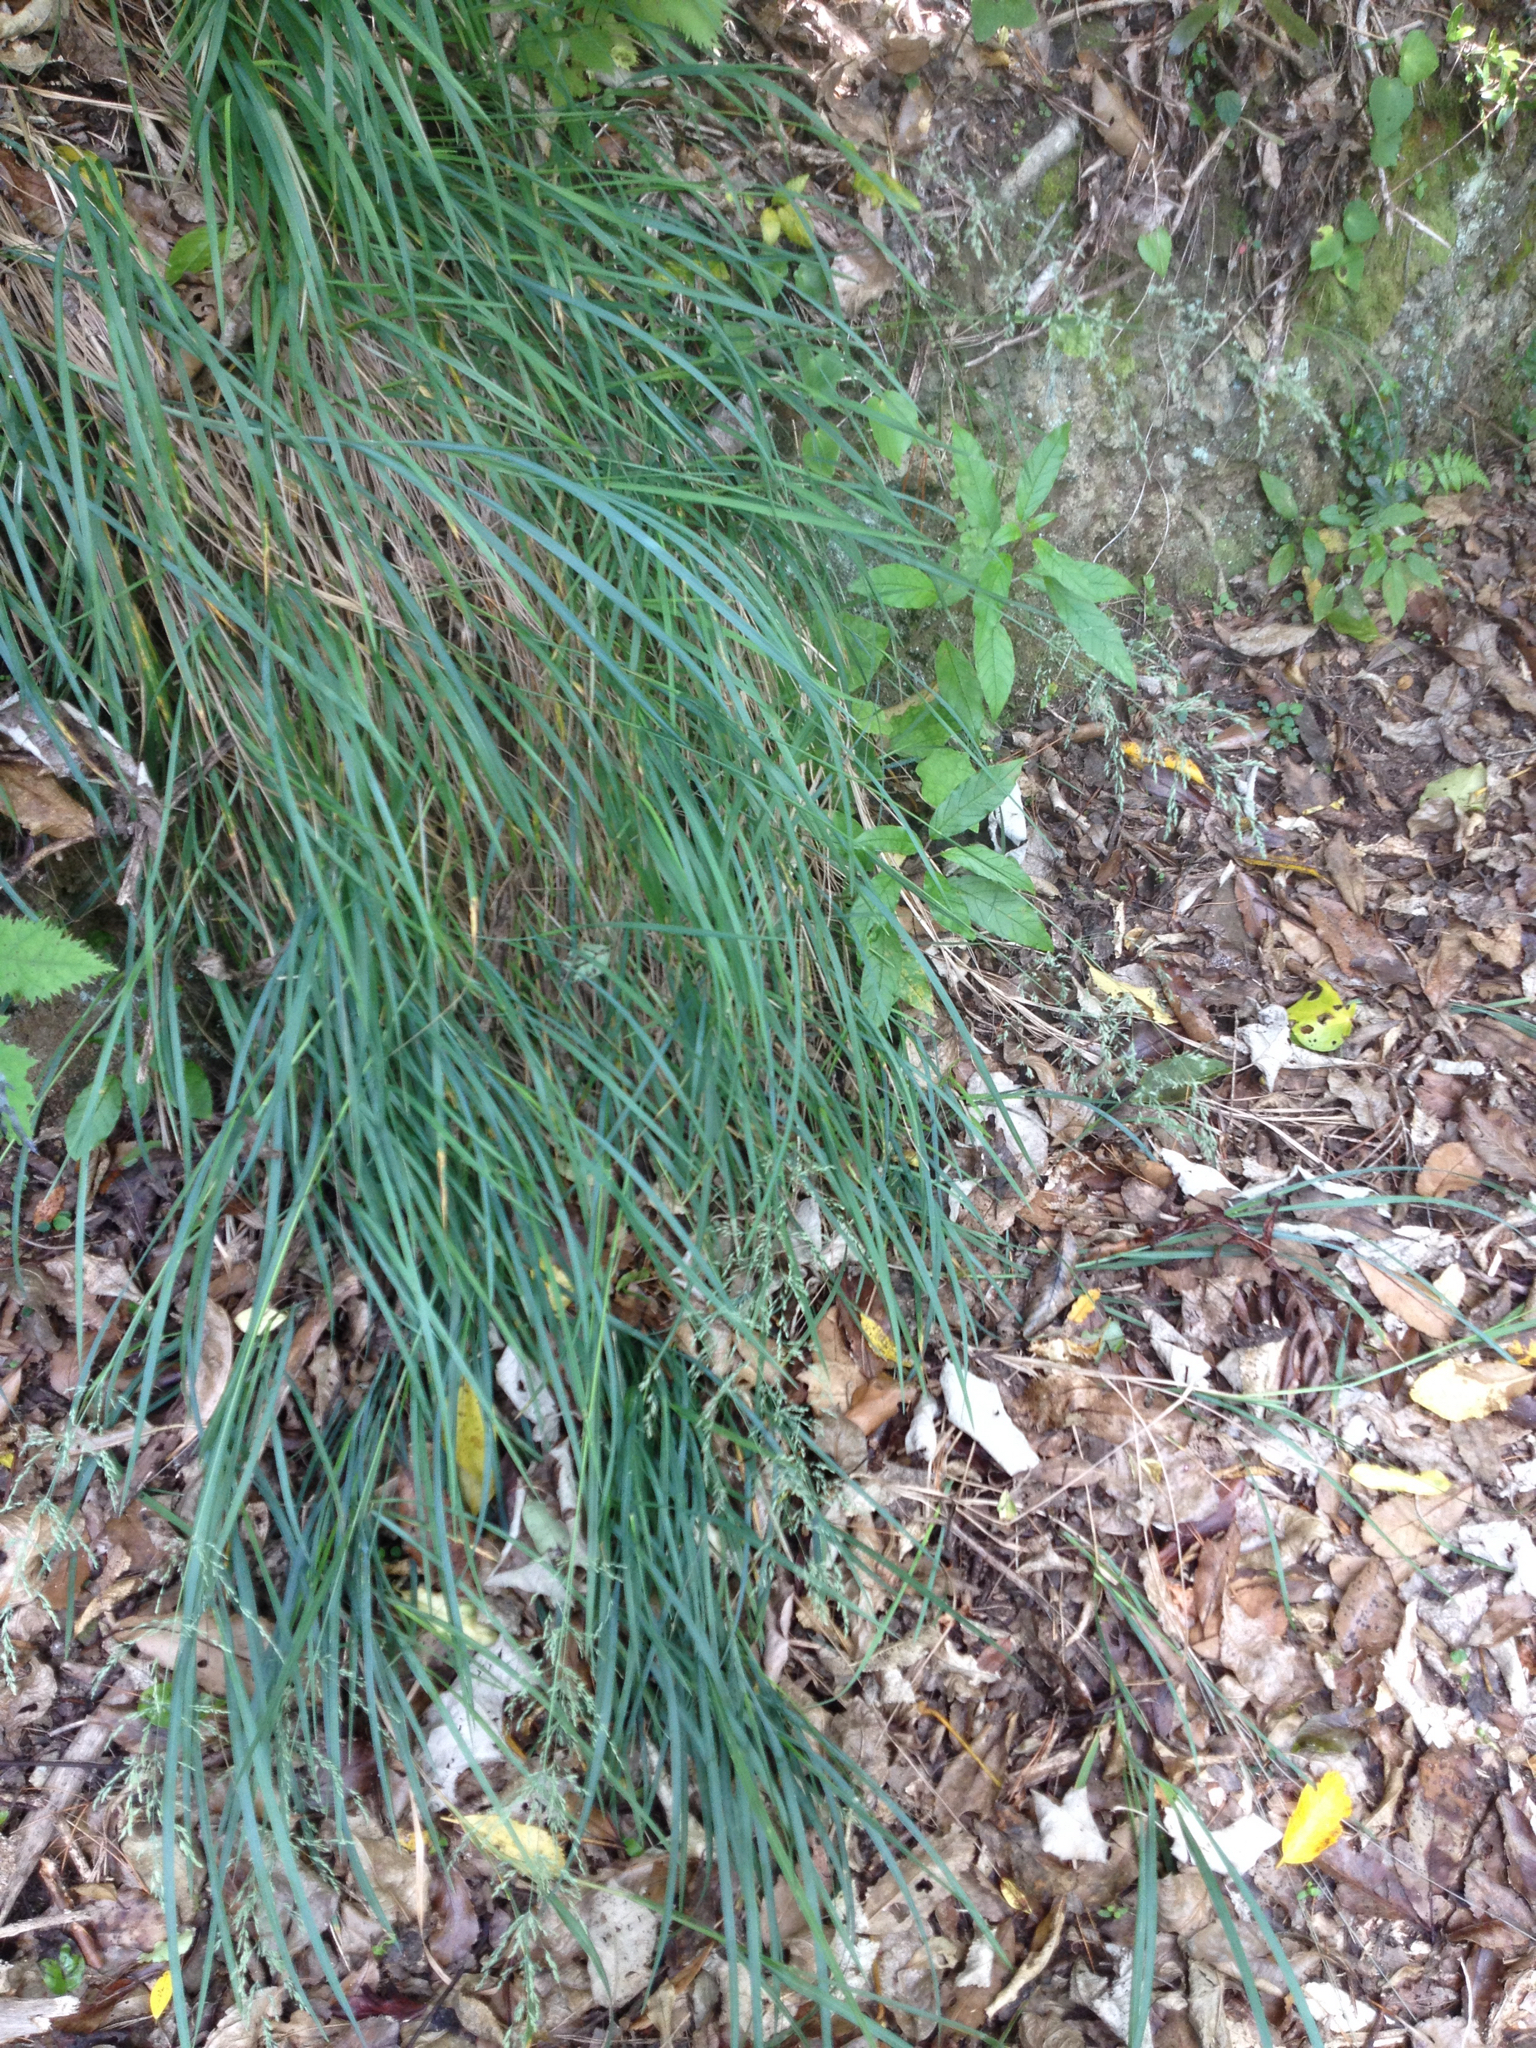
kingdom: Plantae
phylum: Tracheophyta
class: Liliopsida
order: Poales
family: Poaceae
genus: Poa
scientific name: Poa anceps
